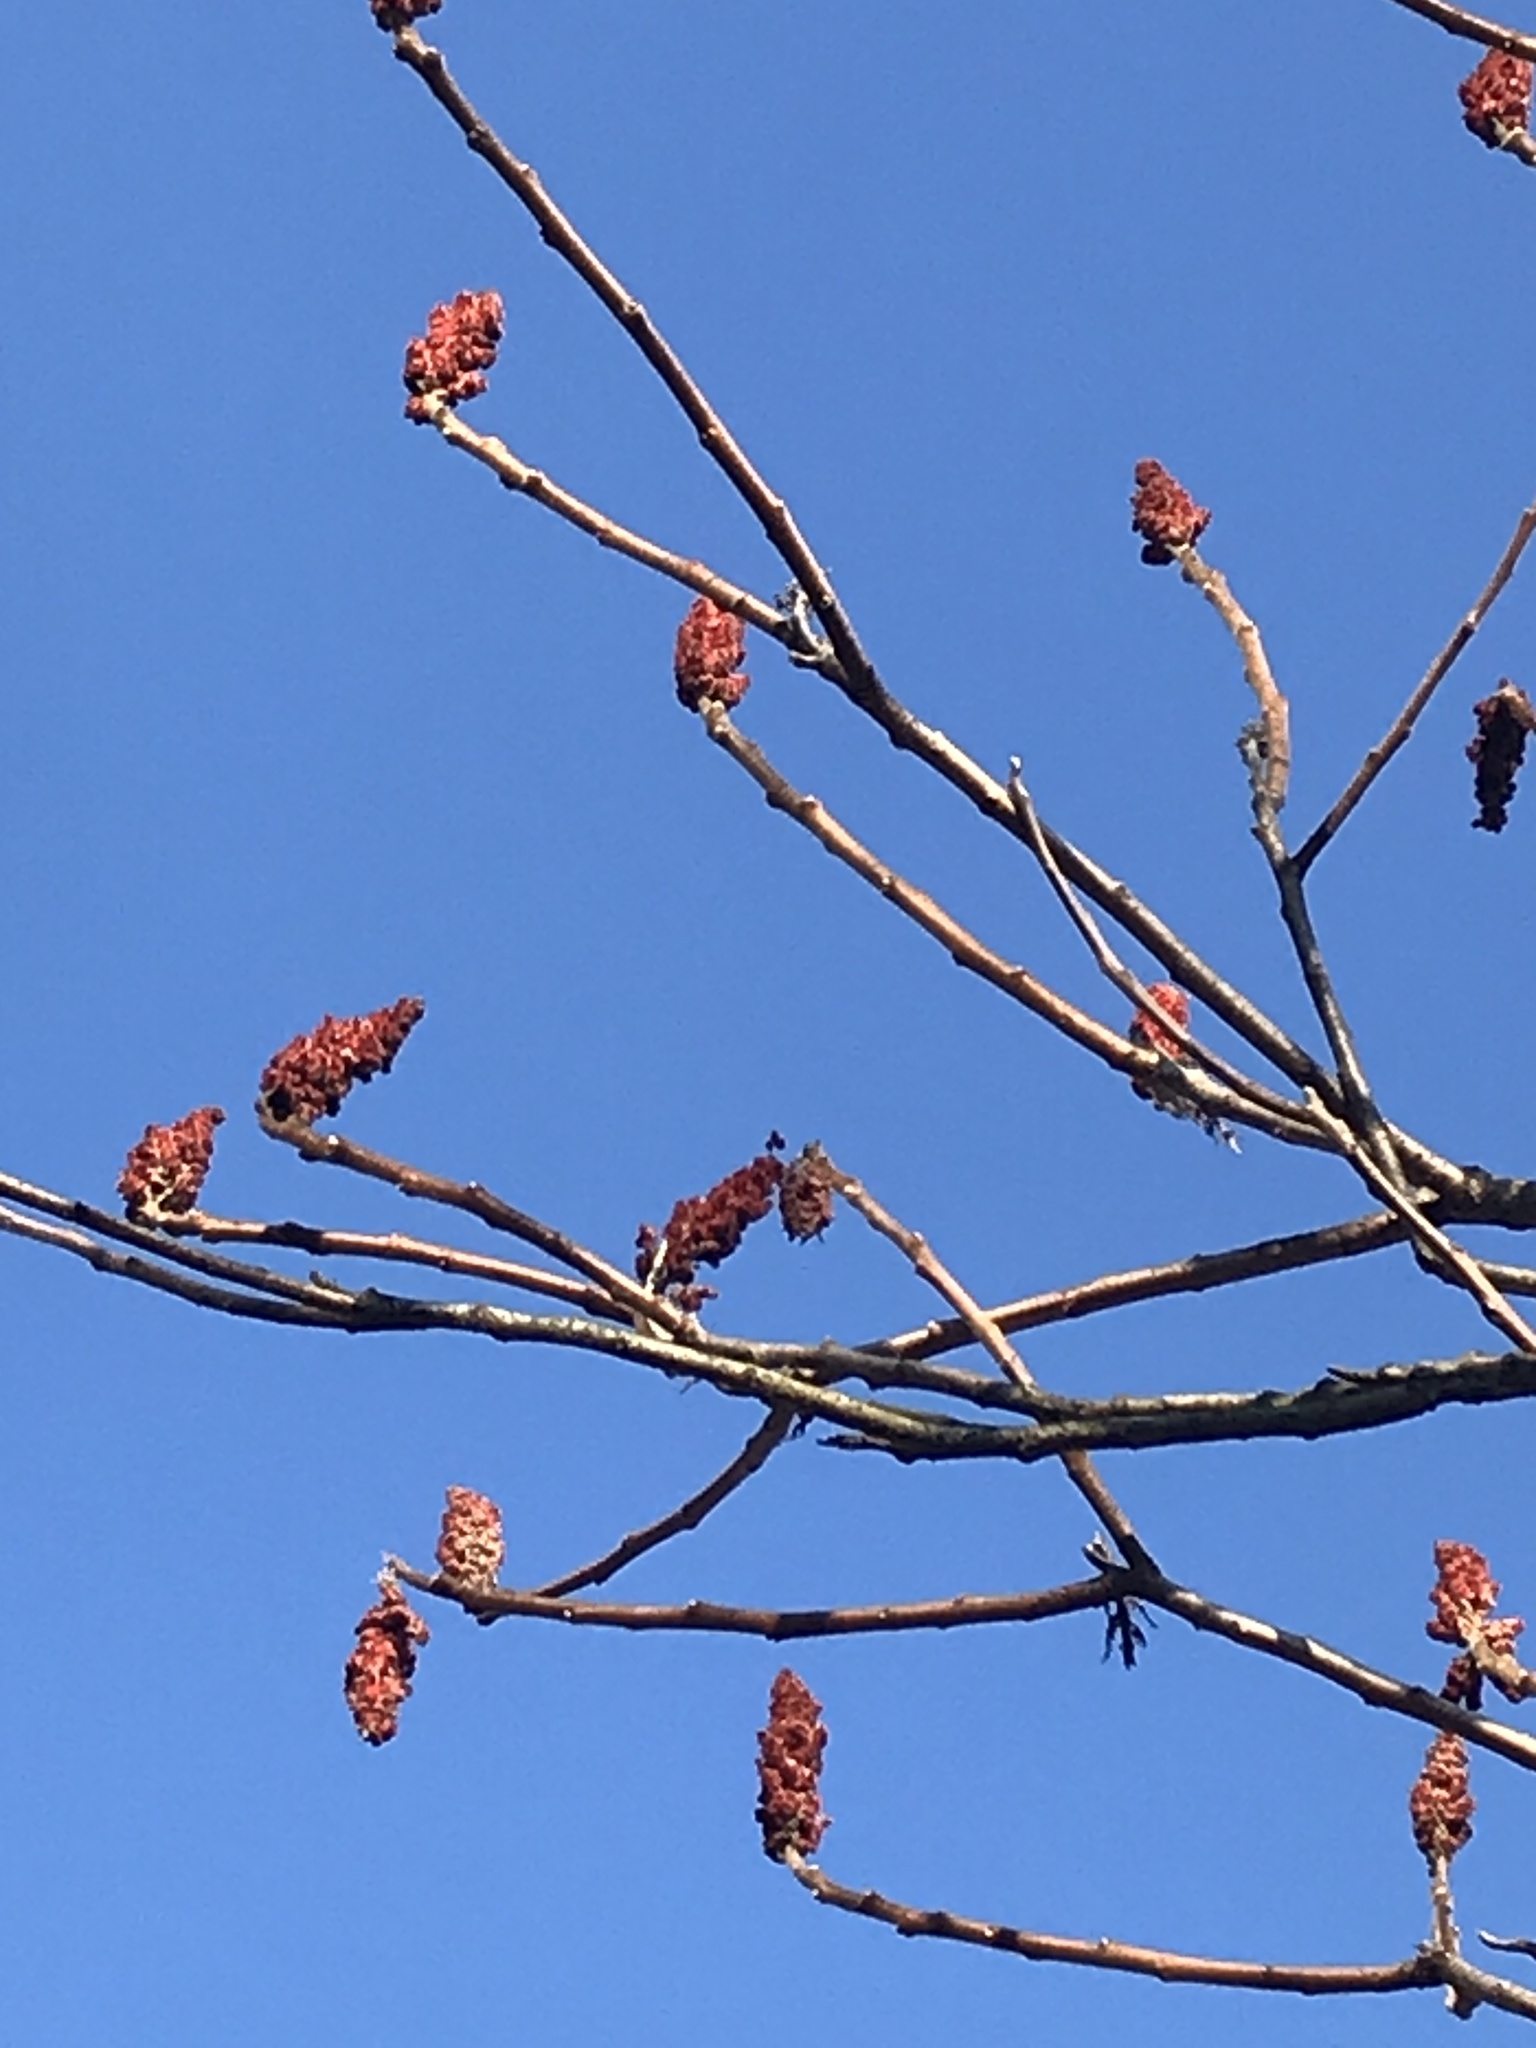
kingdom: Plantae
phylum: Tracheophyta
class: Magnoliopsida
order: Sapindales
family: Anacardiaceae
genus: Rhus
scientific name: Rhus typhina
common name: Staghorn sumac
